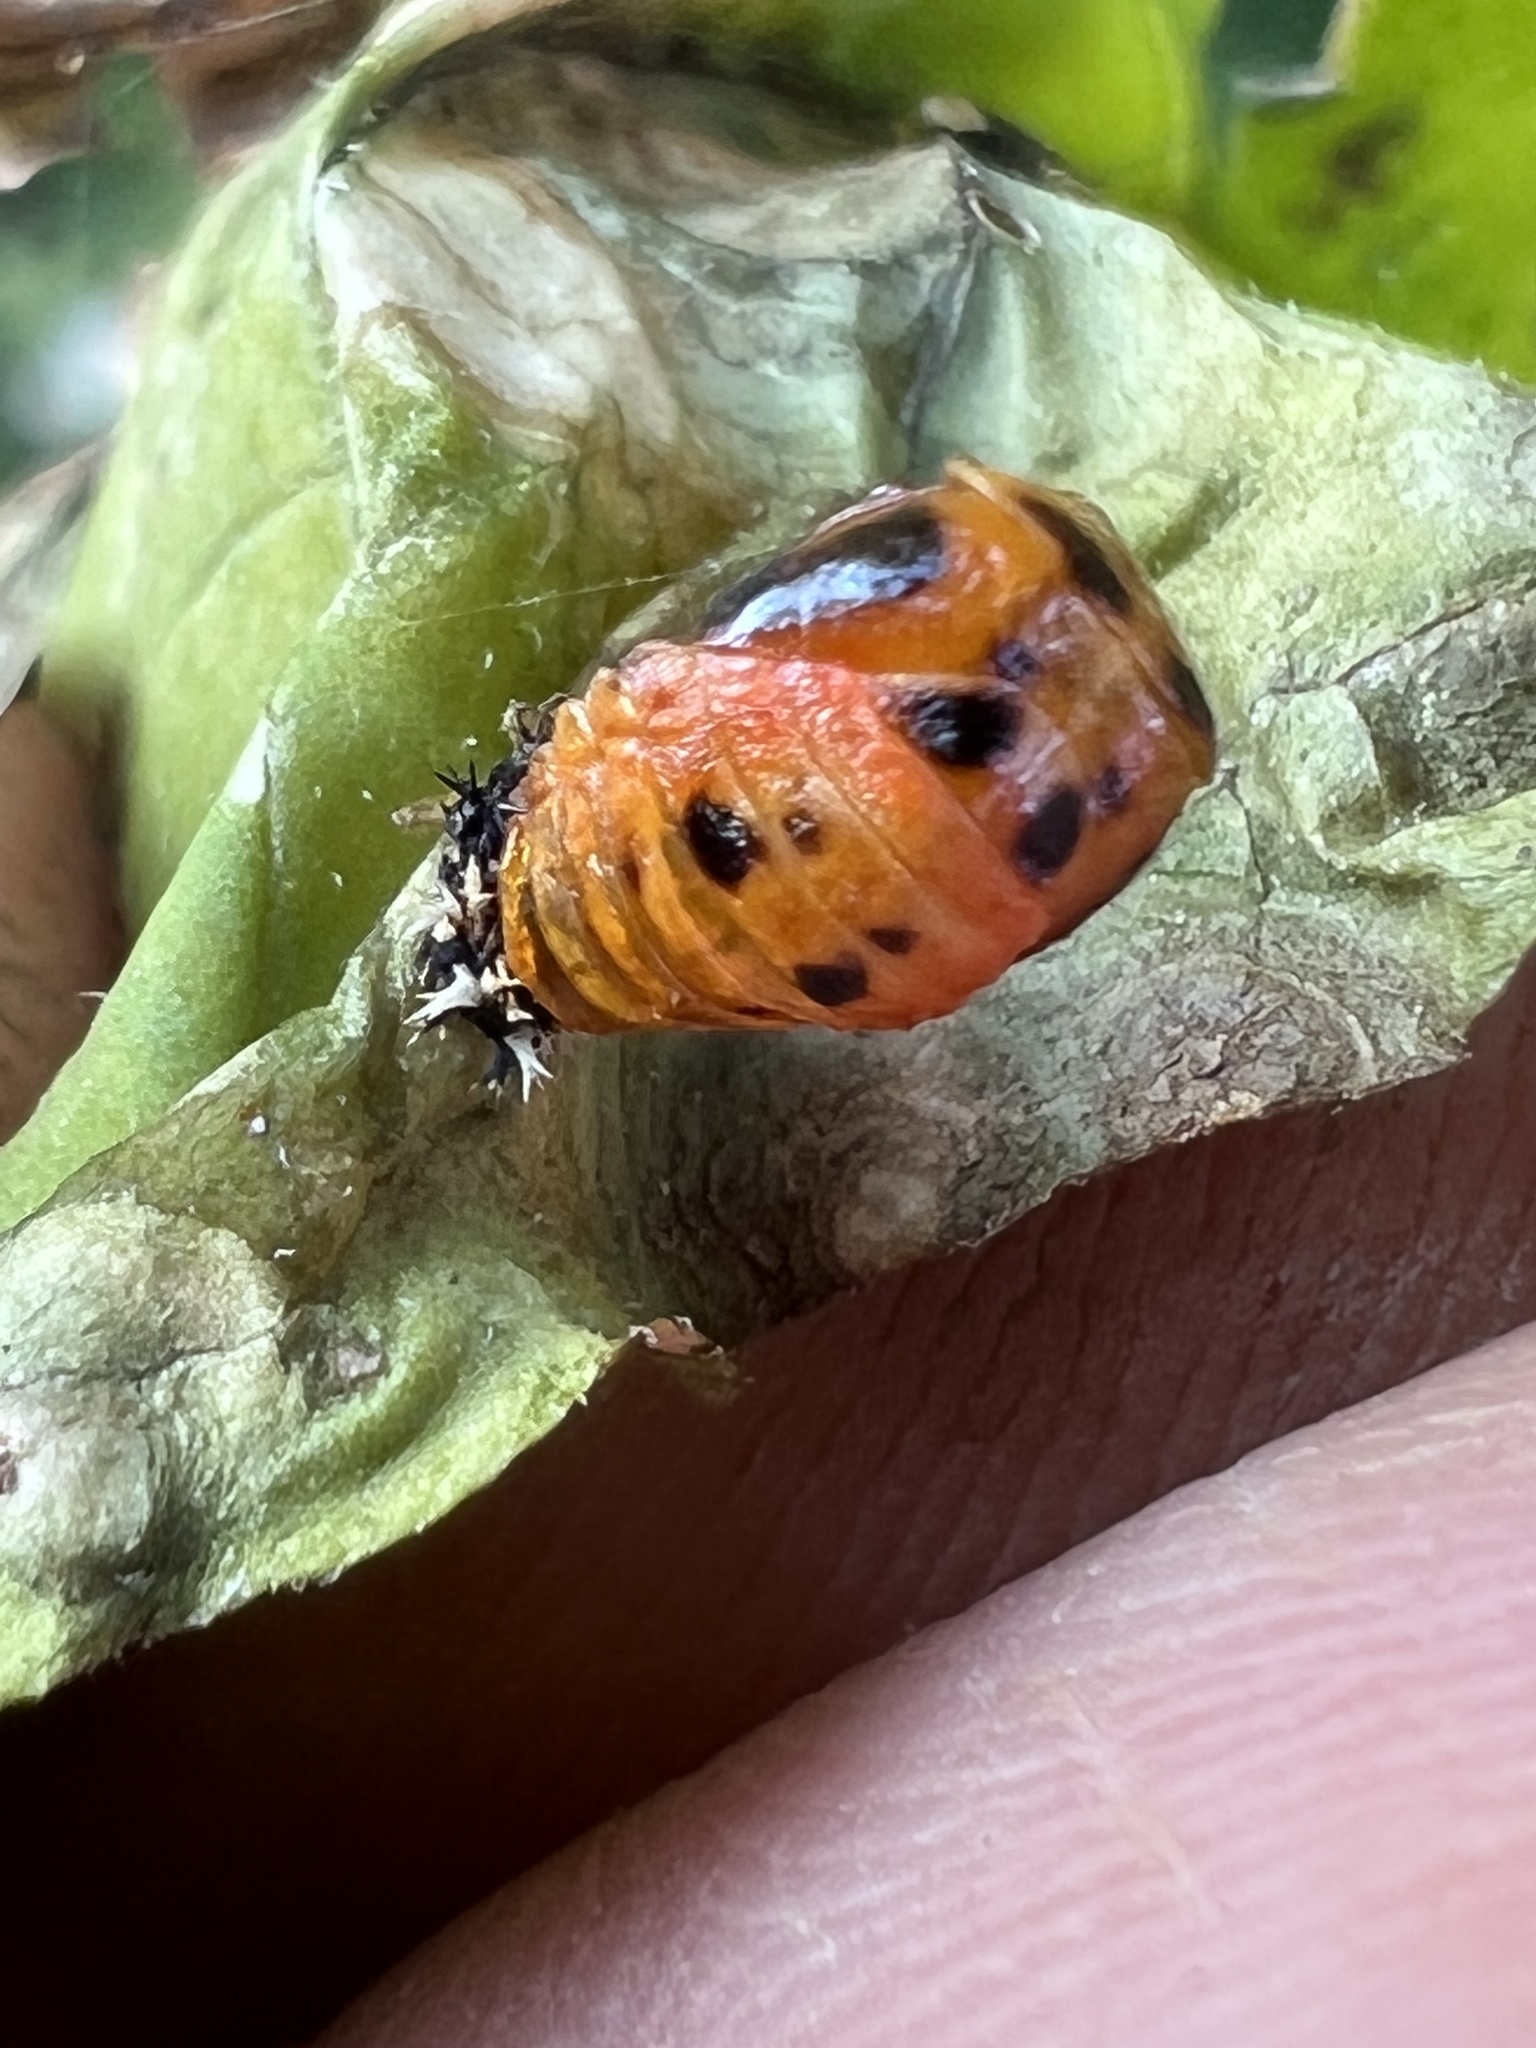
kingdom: Animalia
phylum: Arthropoda
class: Insecta
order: Coleoptera
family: Coccinellidae
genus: Harmonia
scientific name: Harmonia axyridis
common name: Harlequin ladybird
